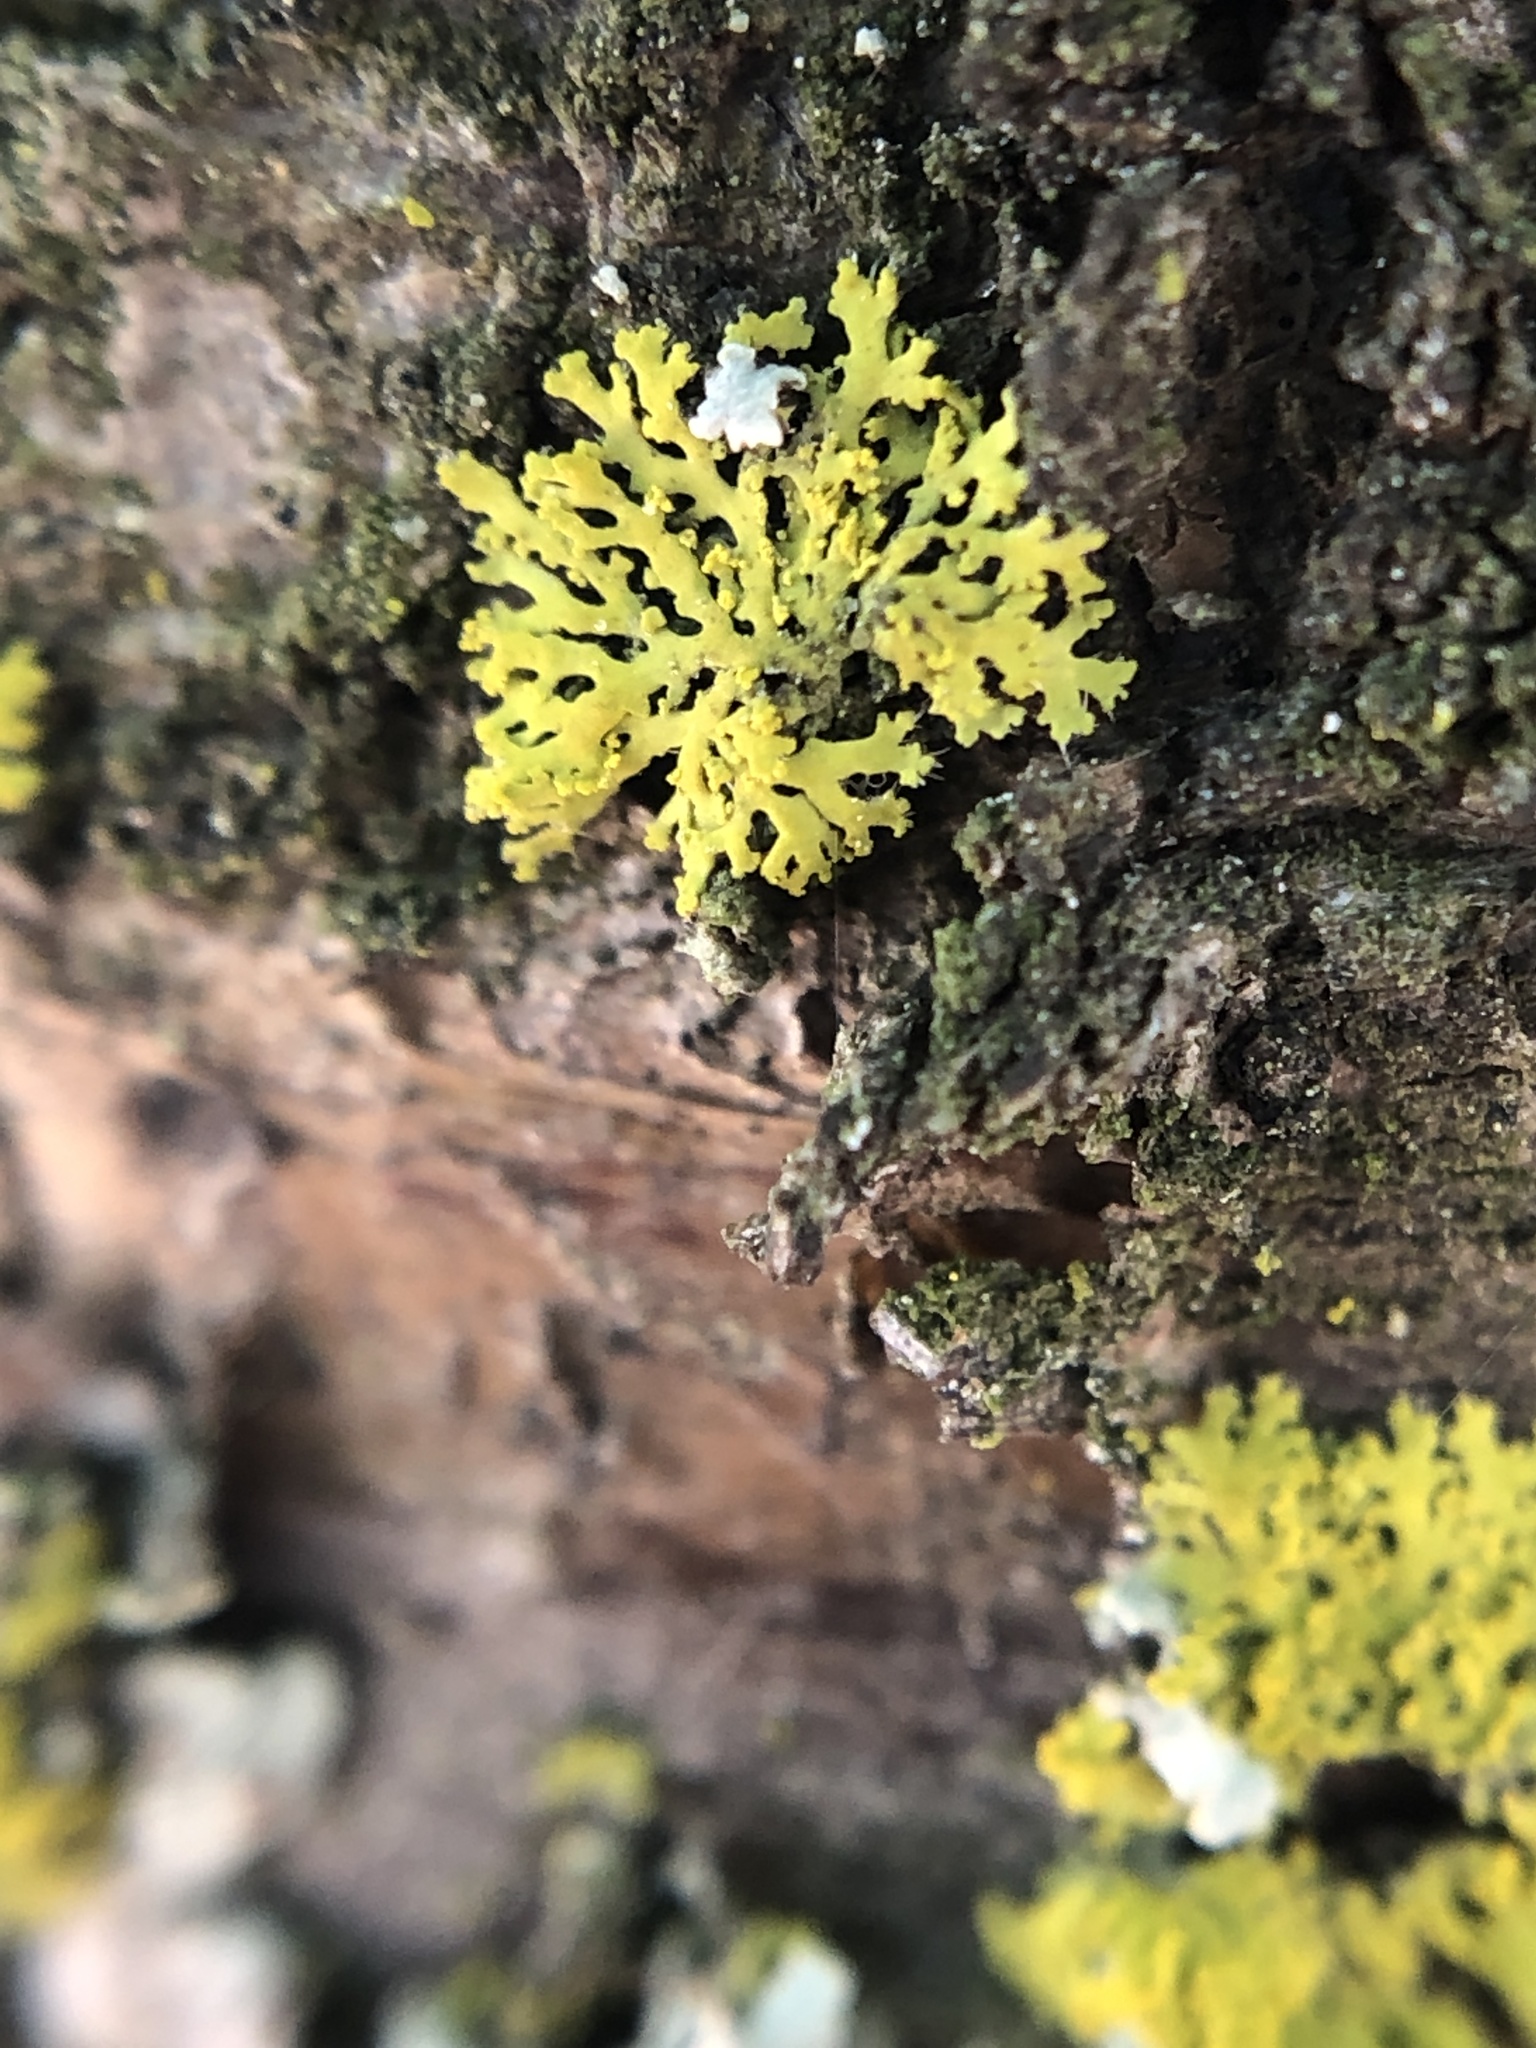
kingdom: Fungi
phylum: Ascomycota
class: Candelariomycetes
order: Candelariales
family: Candelariaceae
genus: Candelaria
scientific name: Candelaria concolor
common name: Candleflame lichen
